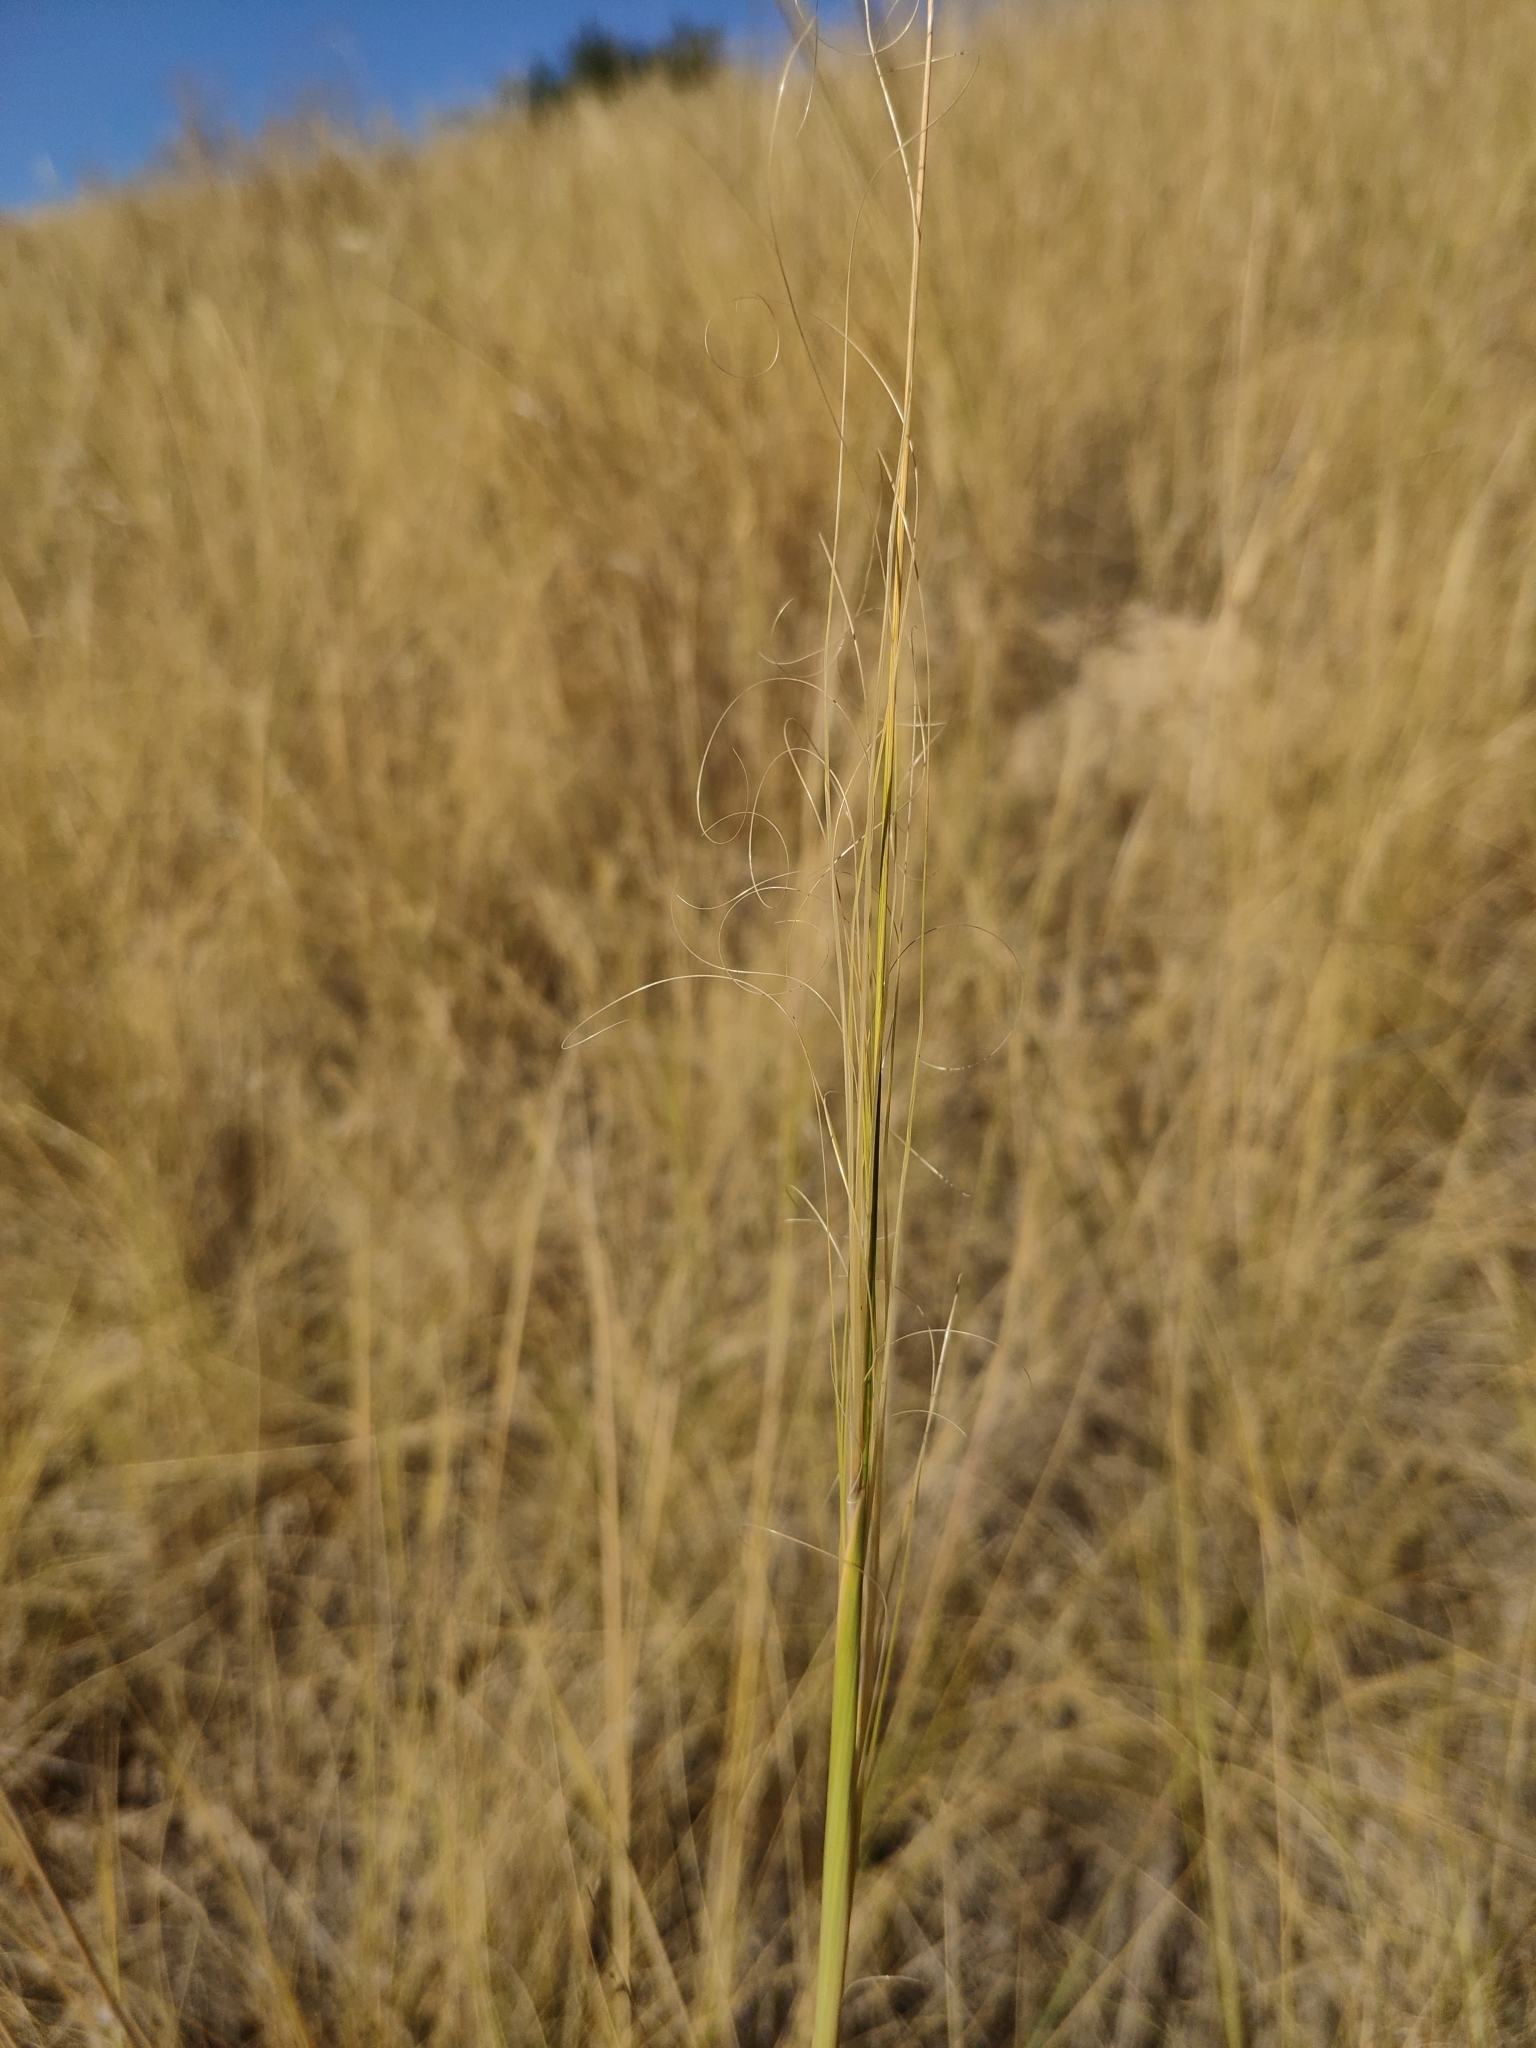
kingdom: Plantae
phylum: Tracheophyta
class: Liliopsida
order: Poales
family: Poaceae
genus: Stipa
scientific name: Stipa capillata
